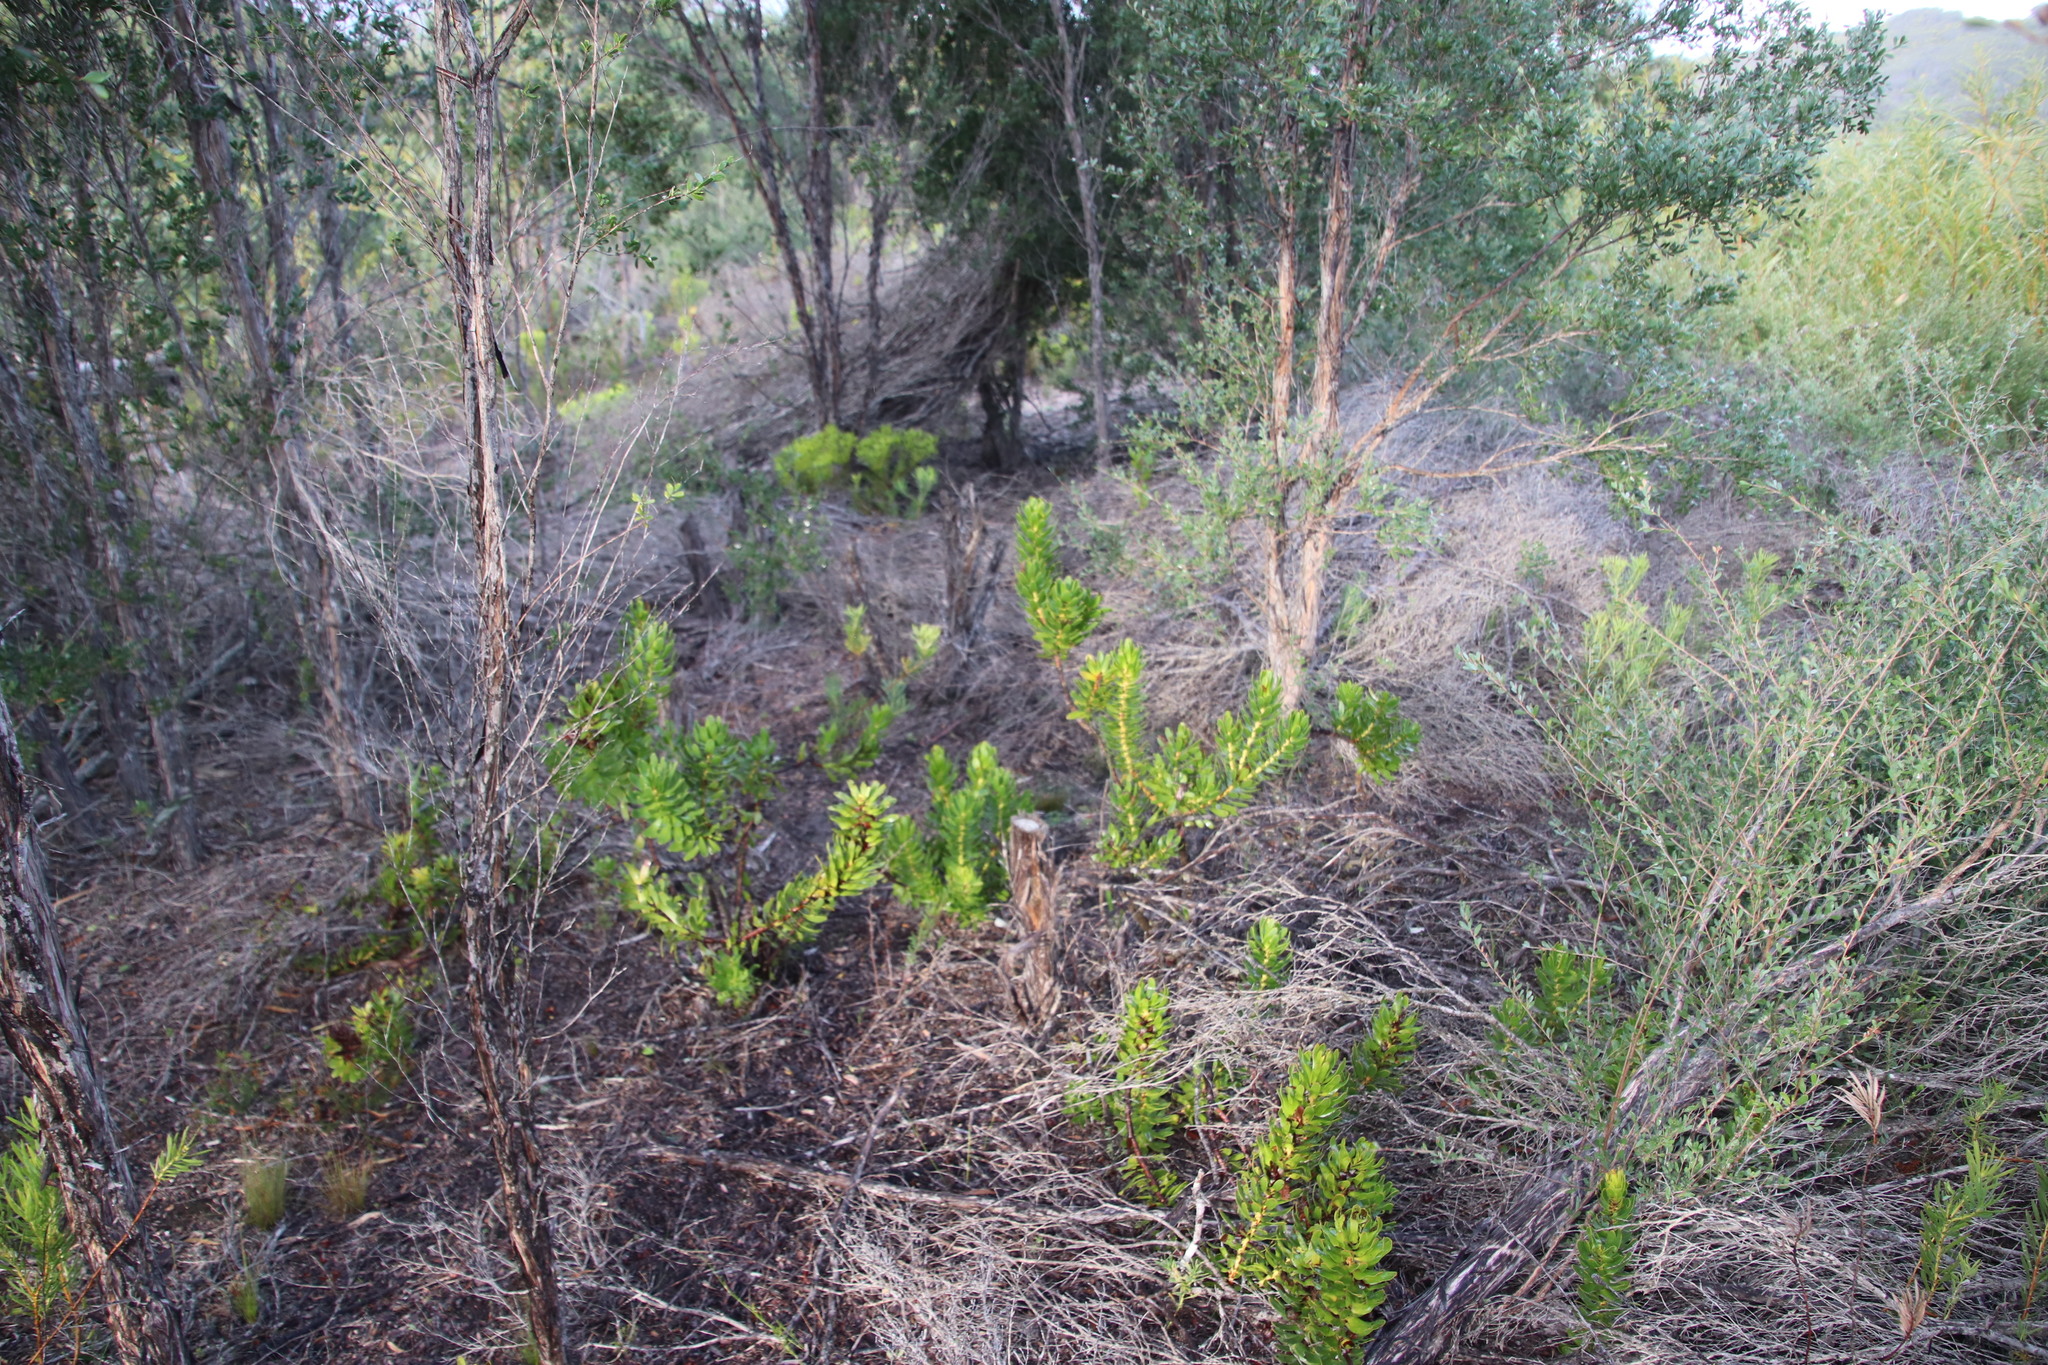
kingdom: Plantae
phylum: Tracheophyta
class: Magnoliopsida
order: Proteales
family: Proteaceae
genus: Mimetes
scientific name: Mimetes cucullatus
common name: Common pagoda
